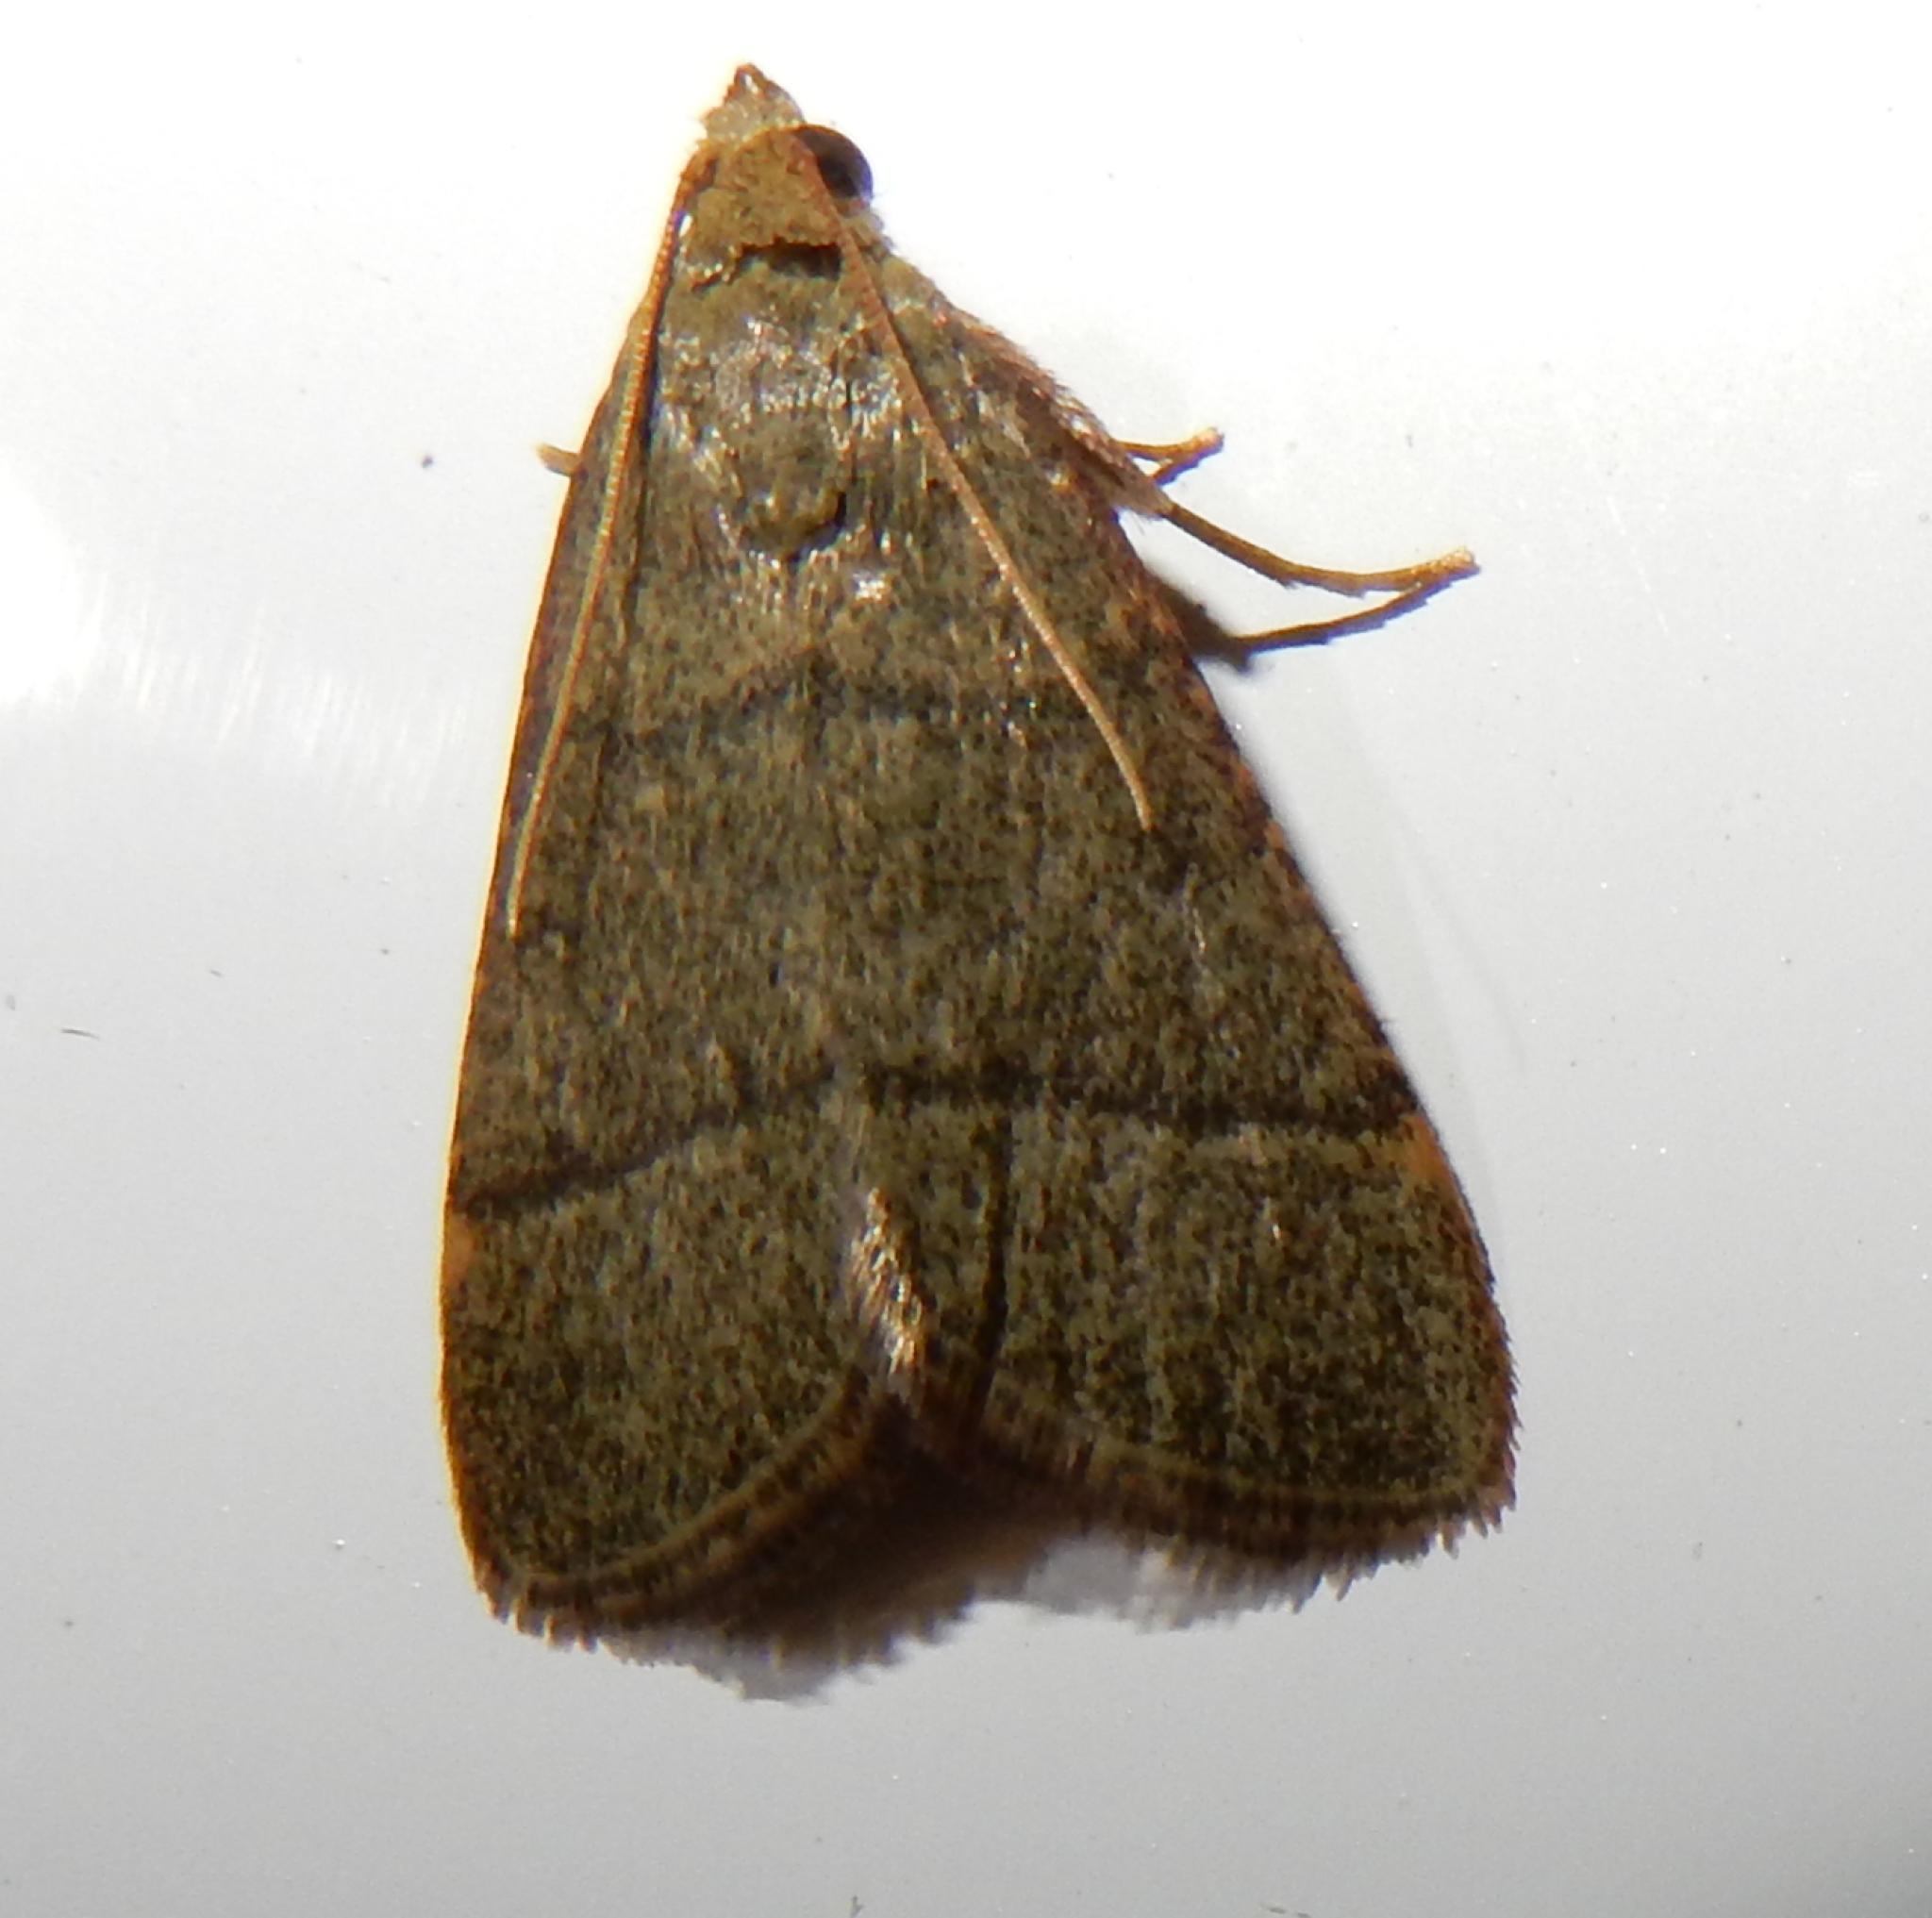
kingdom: Animalia
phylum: Arthropoda
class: Insecta
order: Lepidoptera
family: Pyralidae
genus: Hypsopygia
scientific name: Hypsopygia nostralis
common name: Southern hayworm moth
